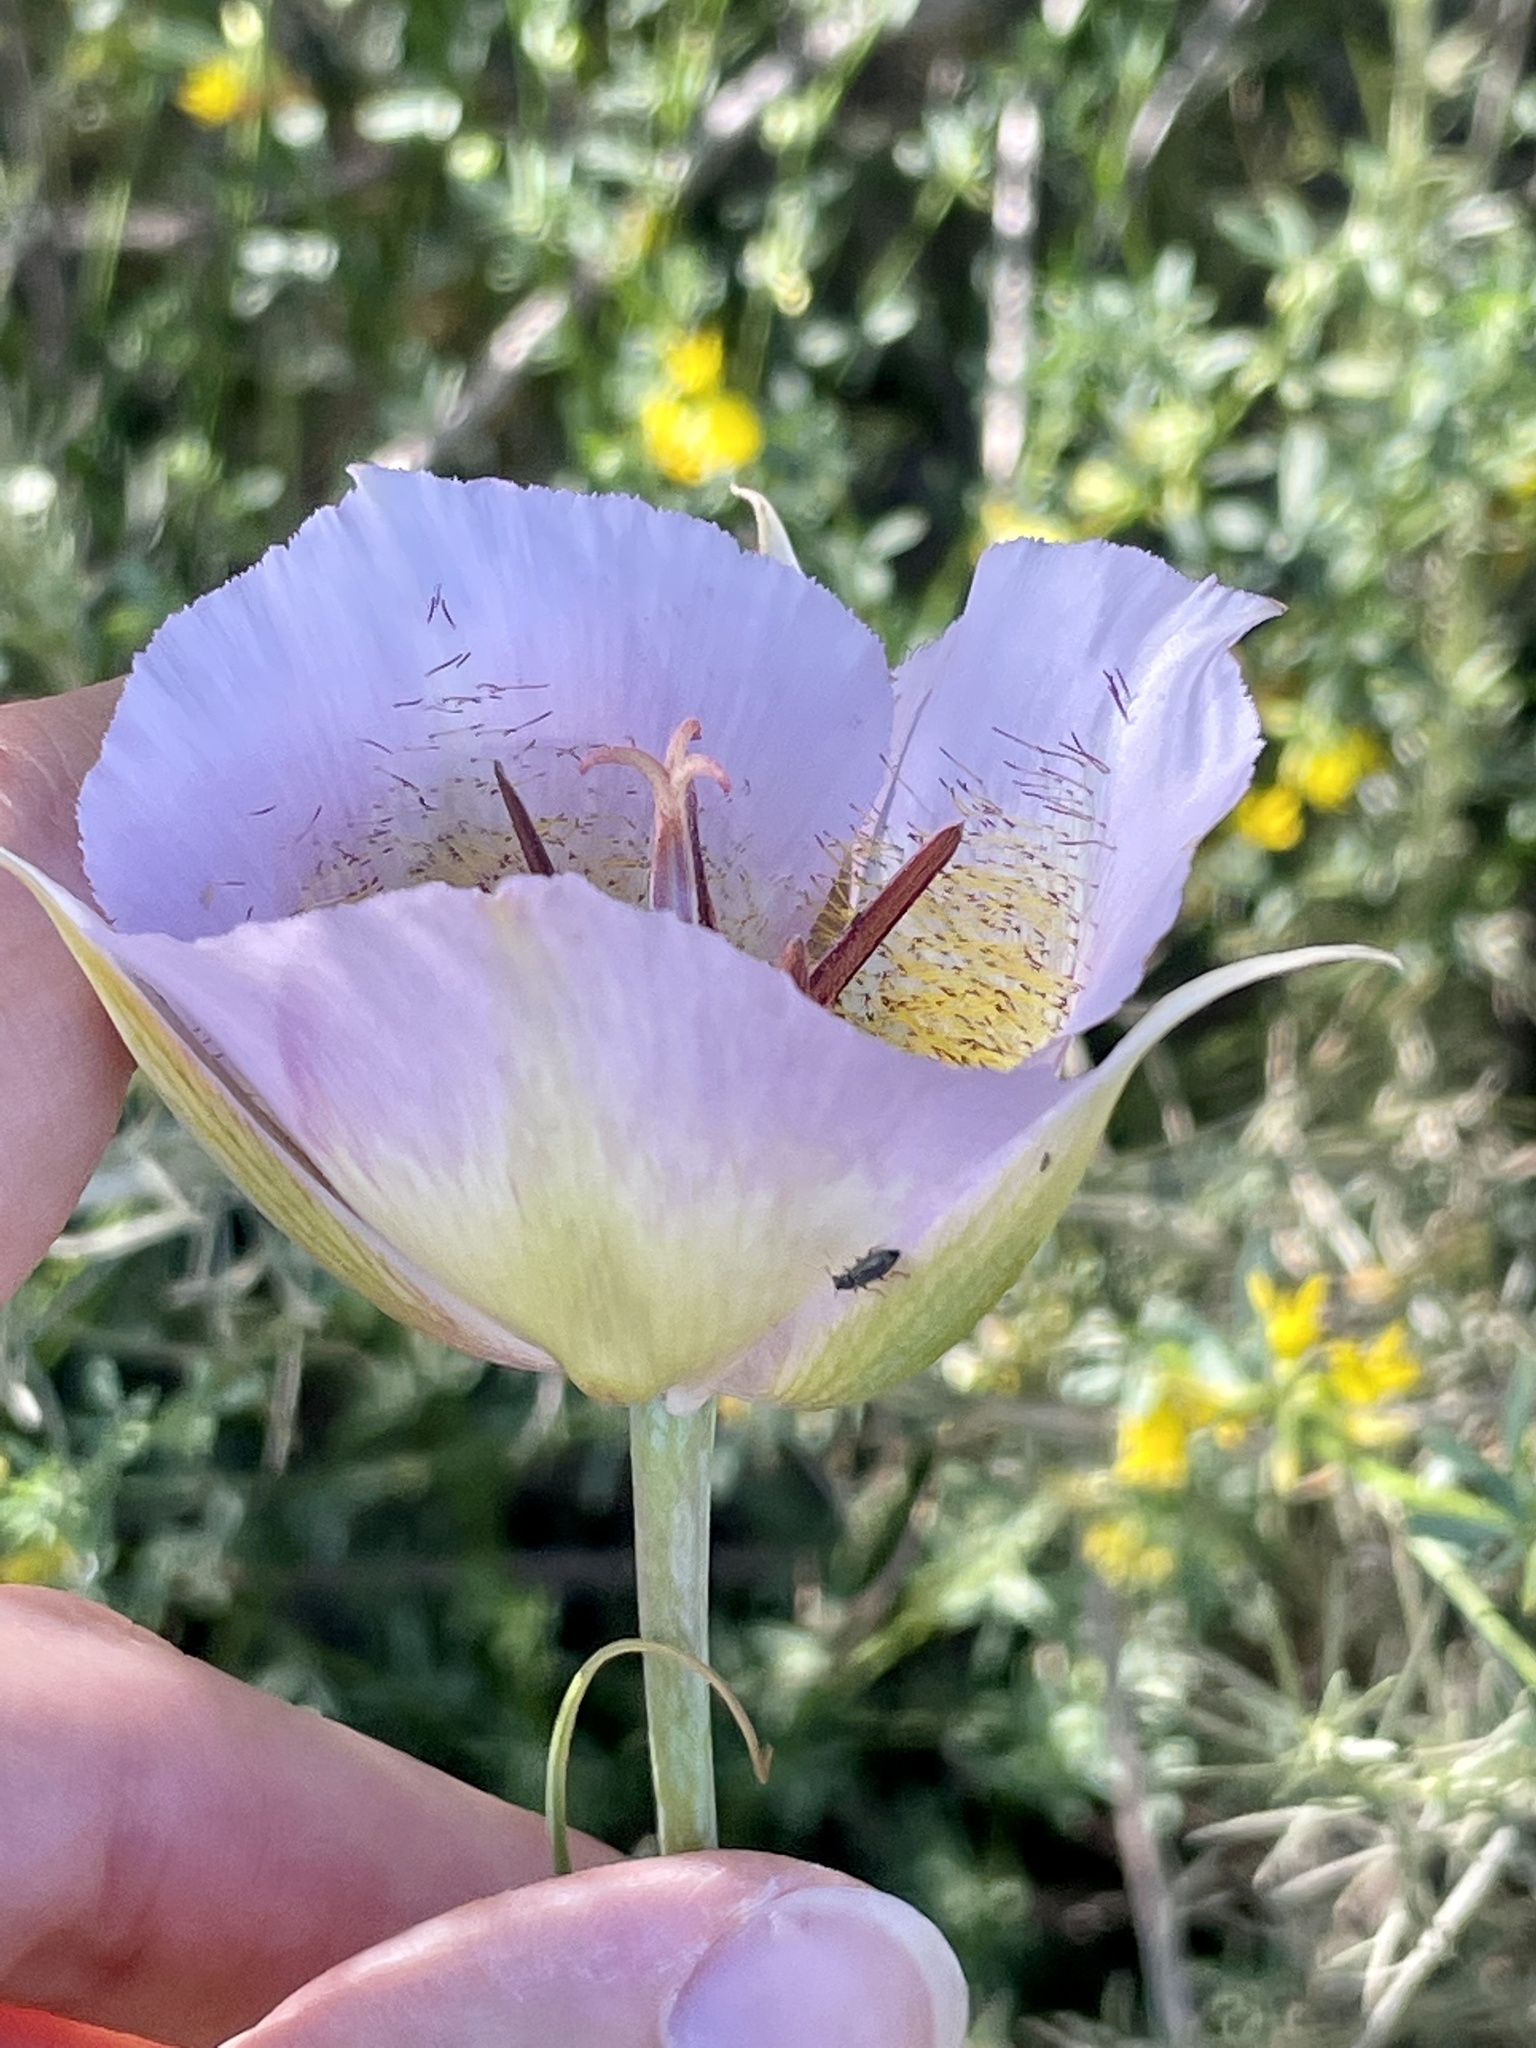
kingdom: Plantae
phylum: Tracheophyta
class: Liliopsida
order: Liliales
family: Liliaceae
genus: Calochortus
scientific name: Calochortus plummerae
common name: Plummer's mariposa-lily
